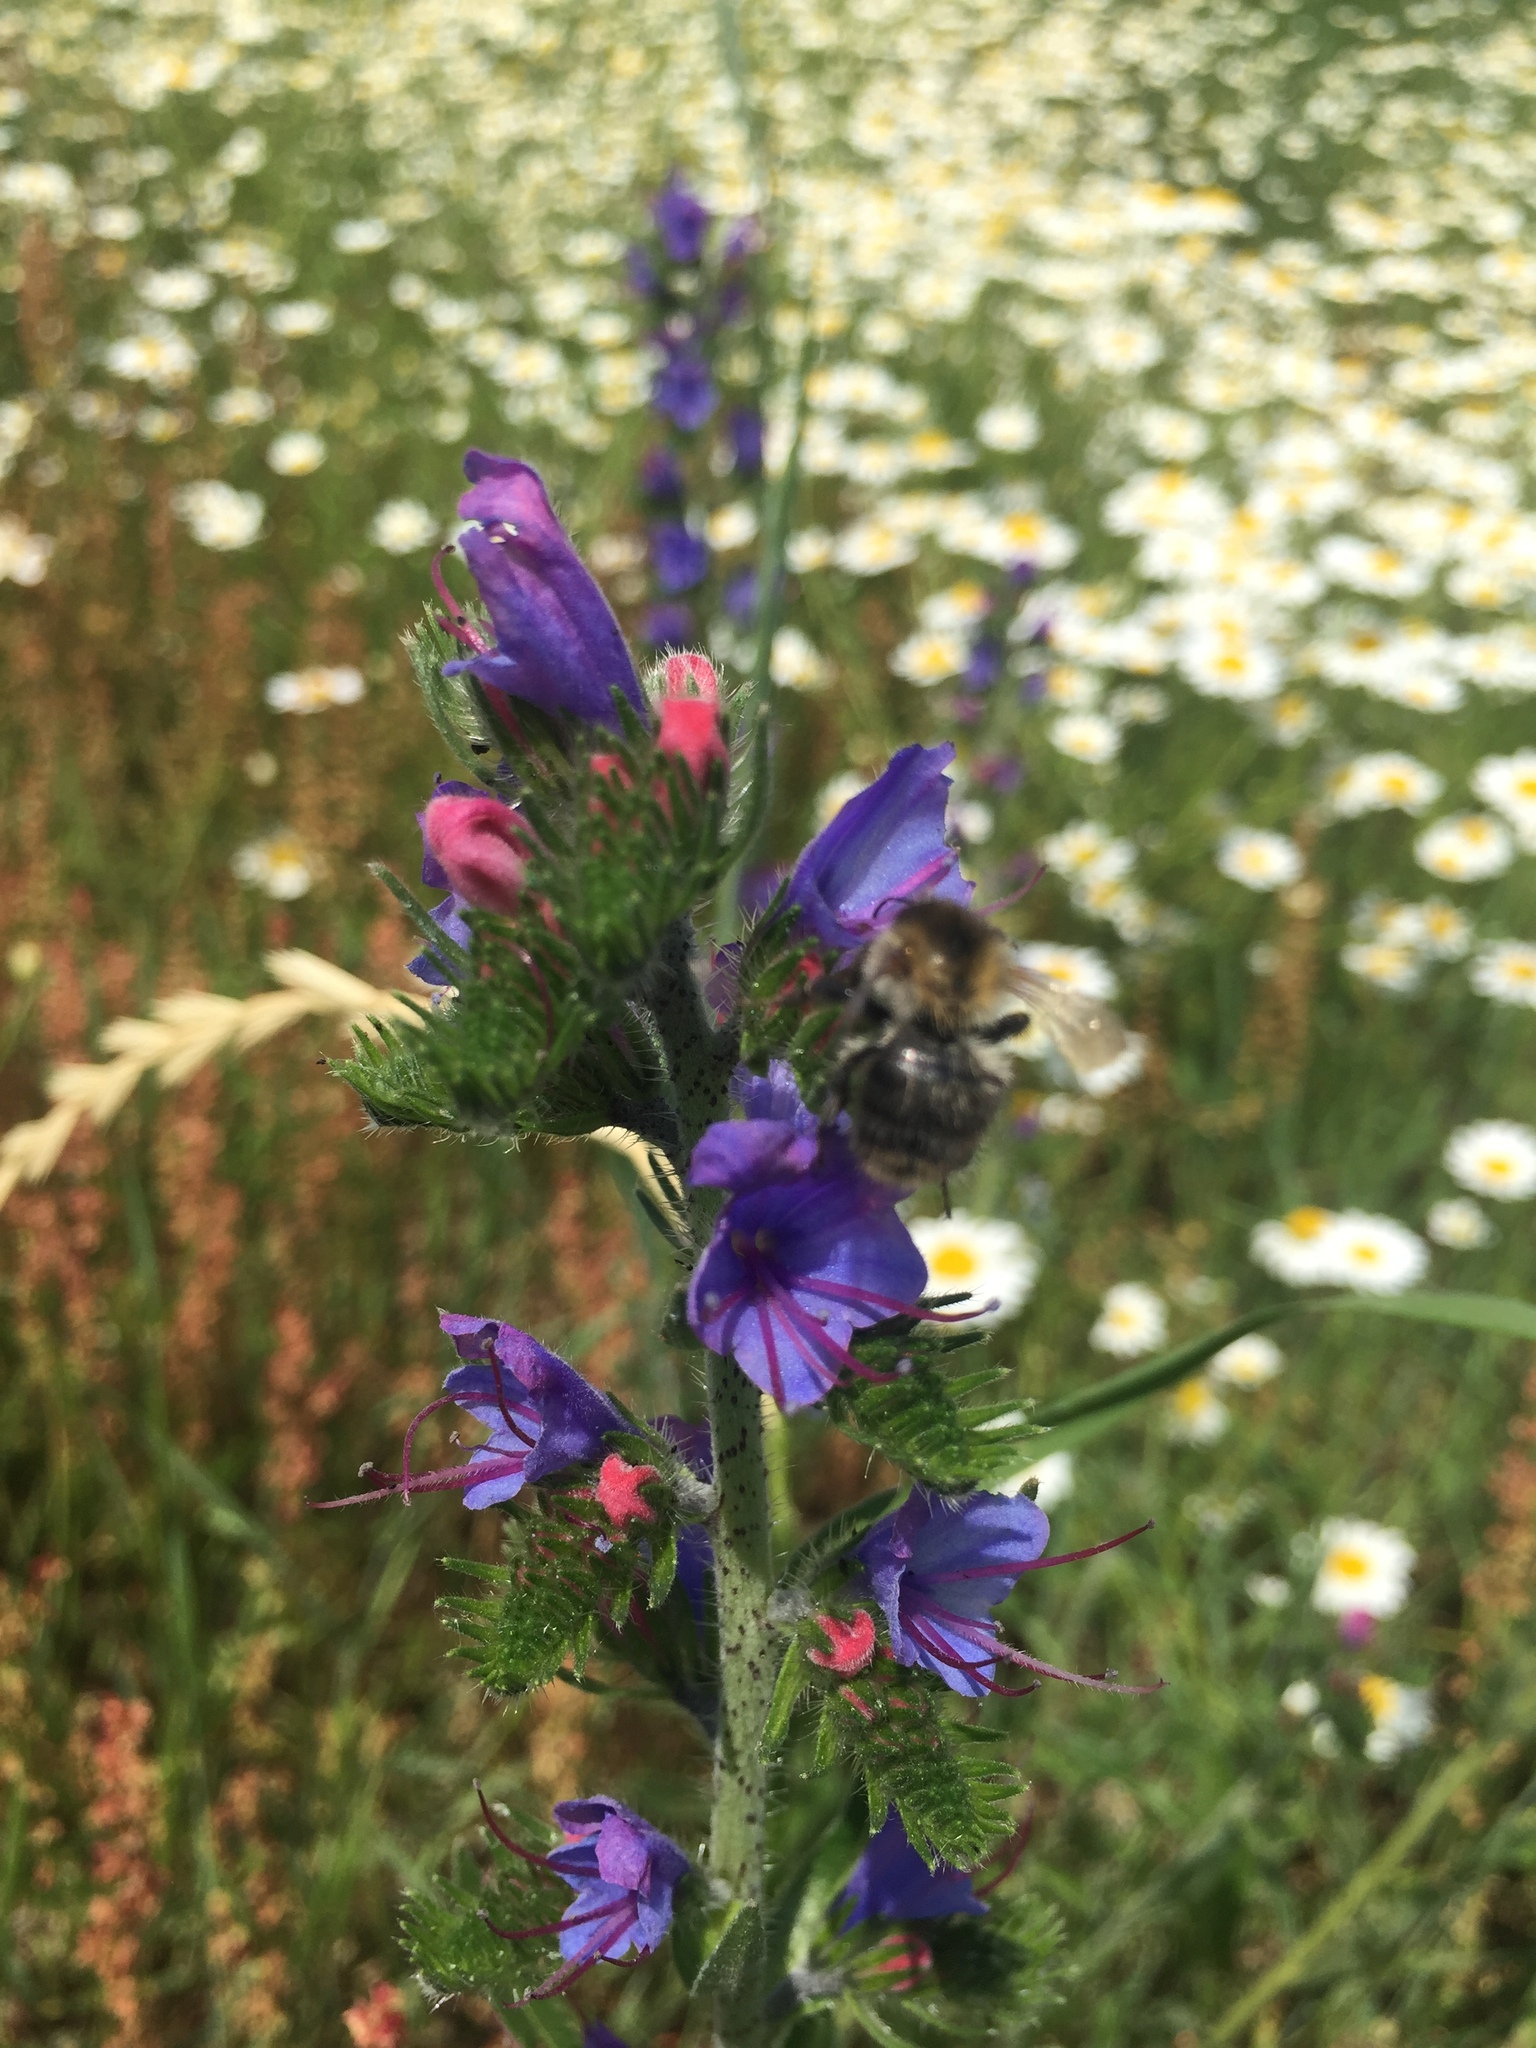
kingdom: Plantae
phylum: Tracheophyta
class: Magnoliopsida
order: Boraginales
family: Boraginaceae
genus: Echium
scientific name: Echium vulgare
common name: Common viper's bugloss
